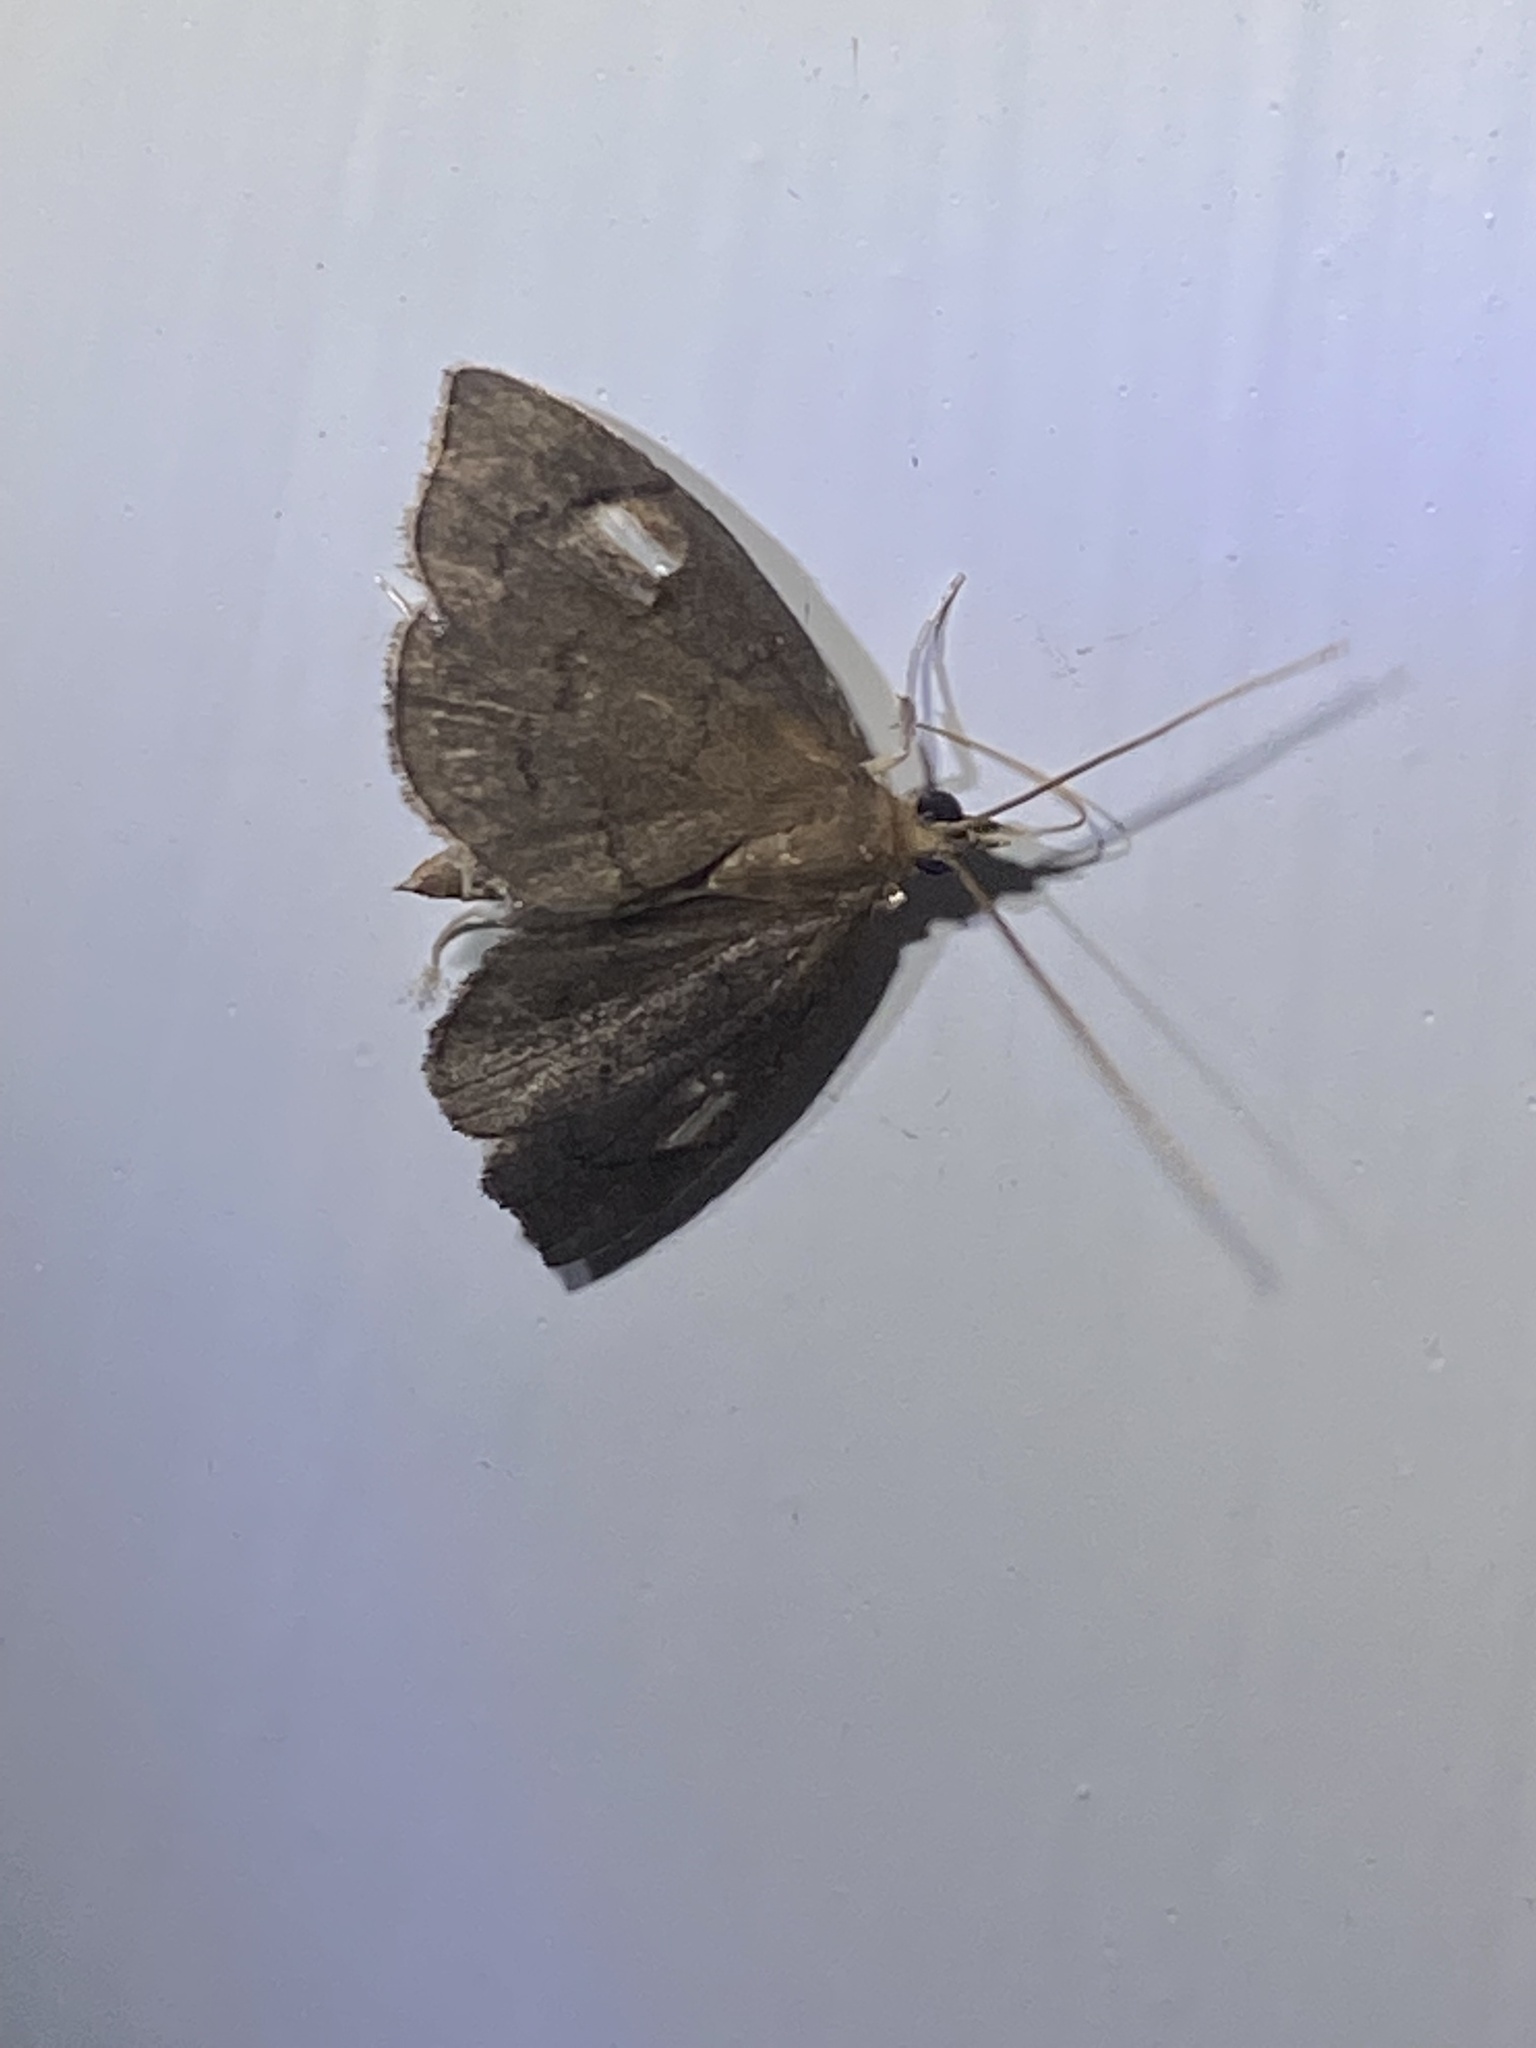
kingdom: Animalia
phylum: Arthropoda
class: Insecta
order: Lepidoptera
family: Crambidae
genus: Perispasta
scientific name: Perispasta caeculalis
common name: Titian peale's moth
